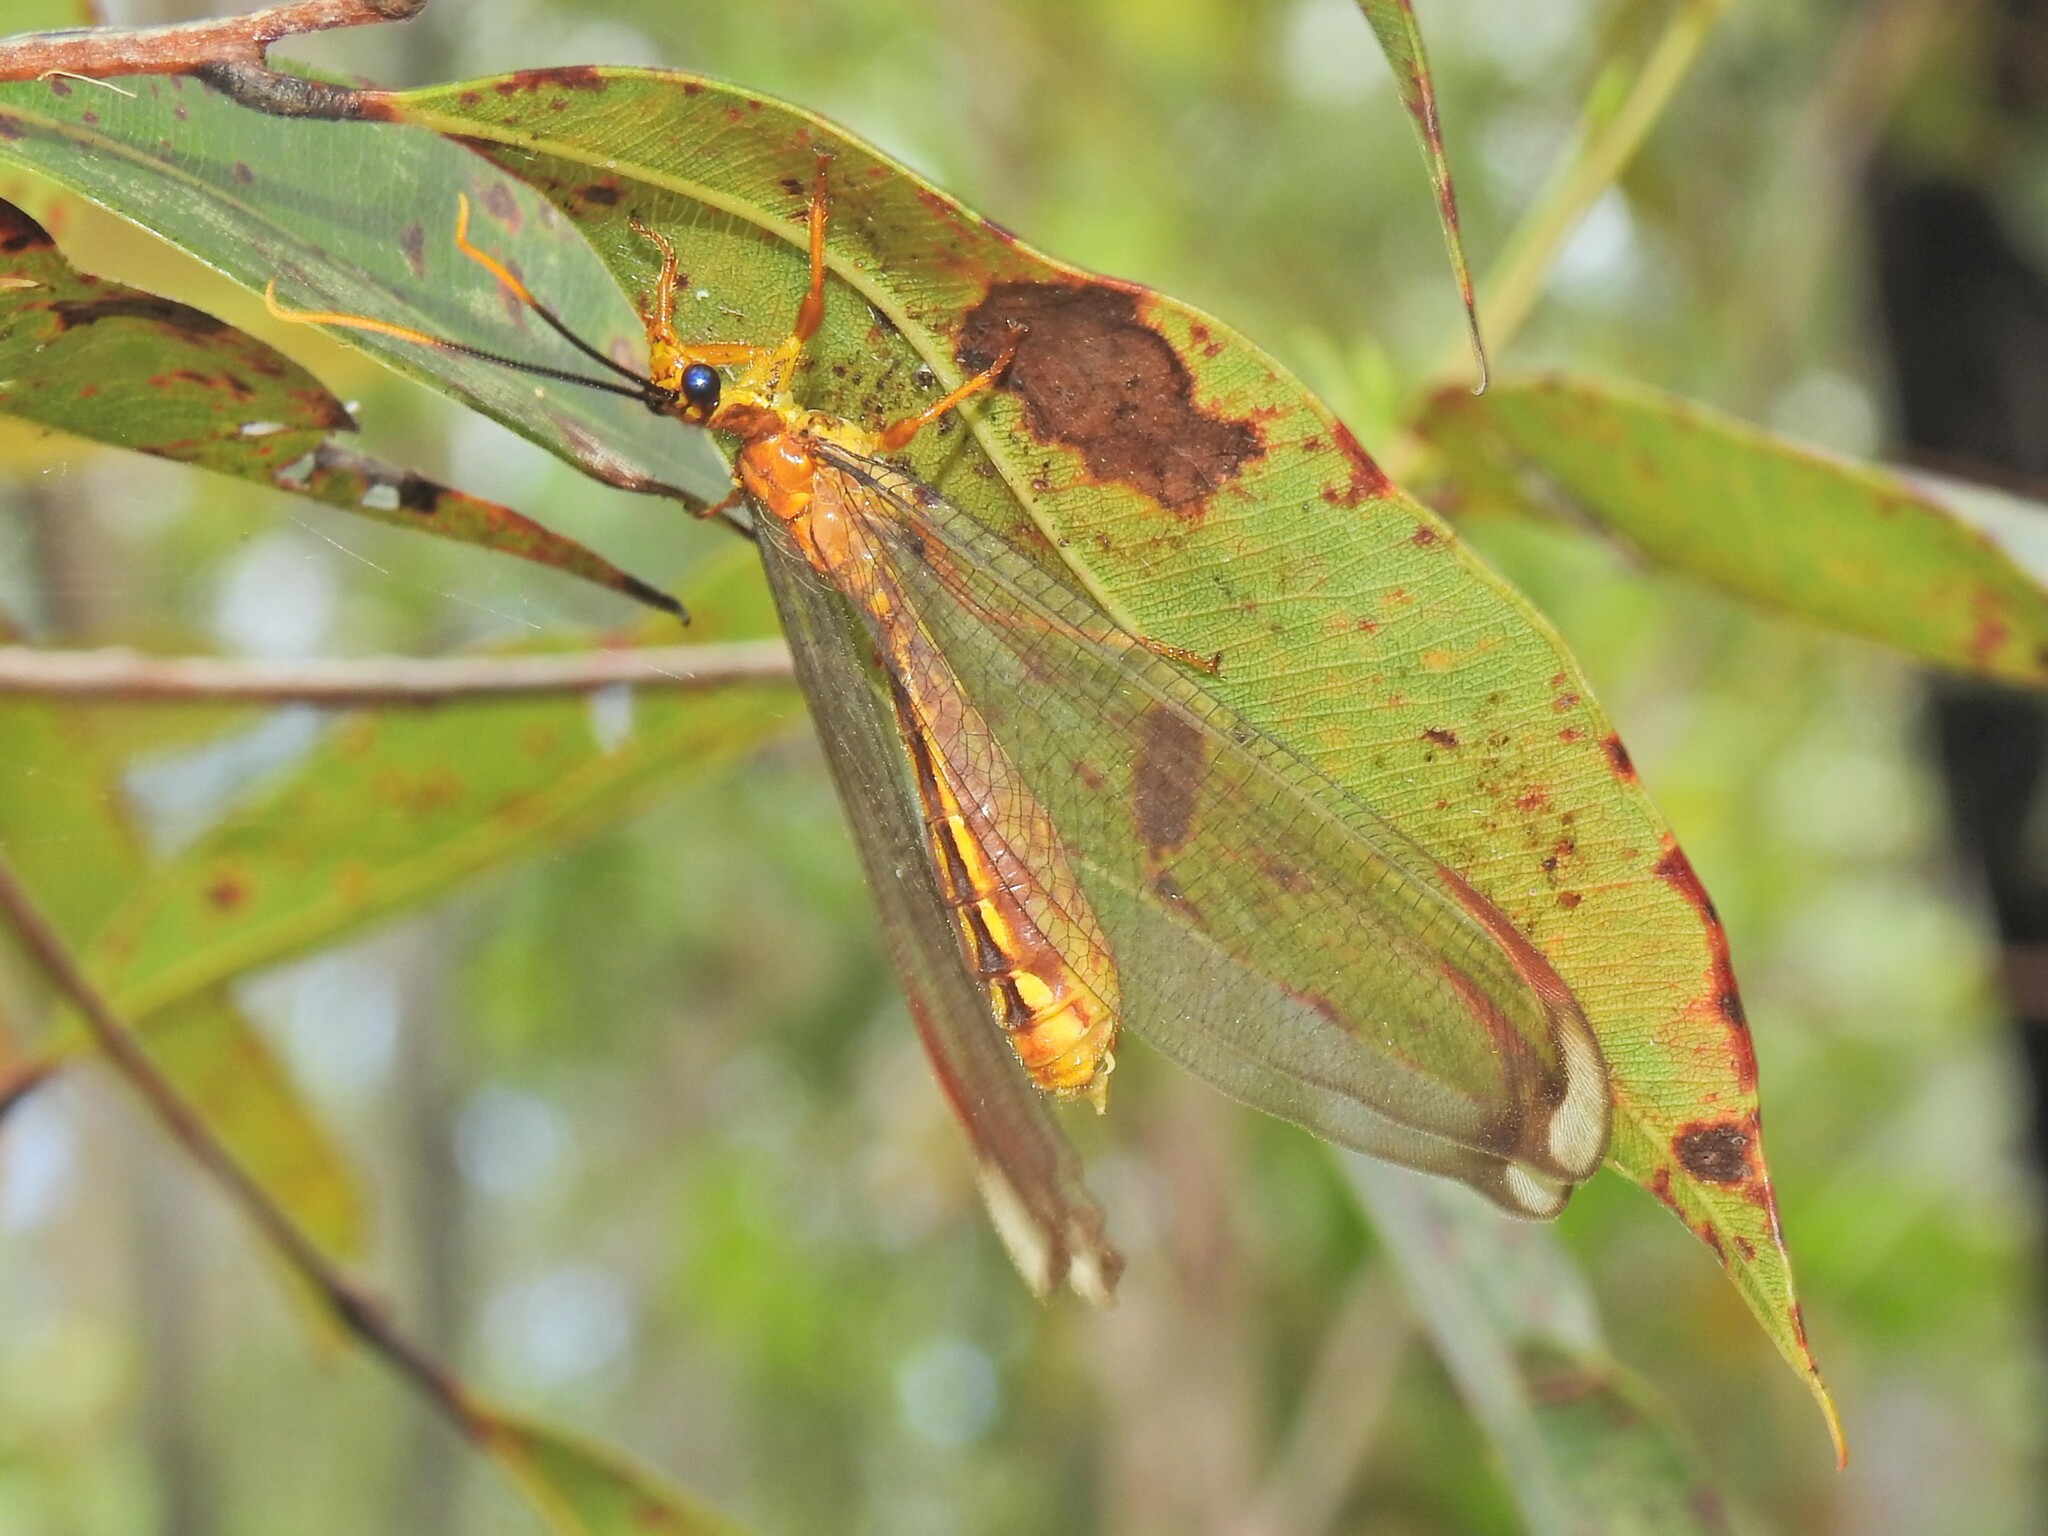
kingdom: Animalia
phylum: Arthropoda
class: Insecta
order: Neuroptera
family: Nymphidae
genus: Nymphes
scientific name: Nymphes myrmeleonoides
